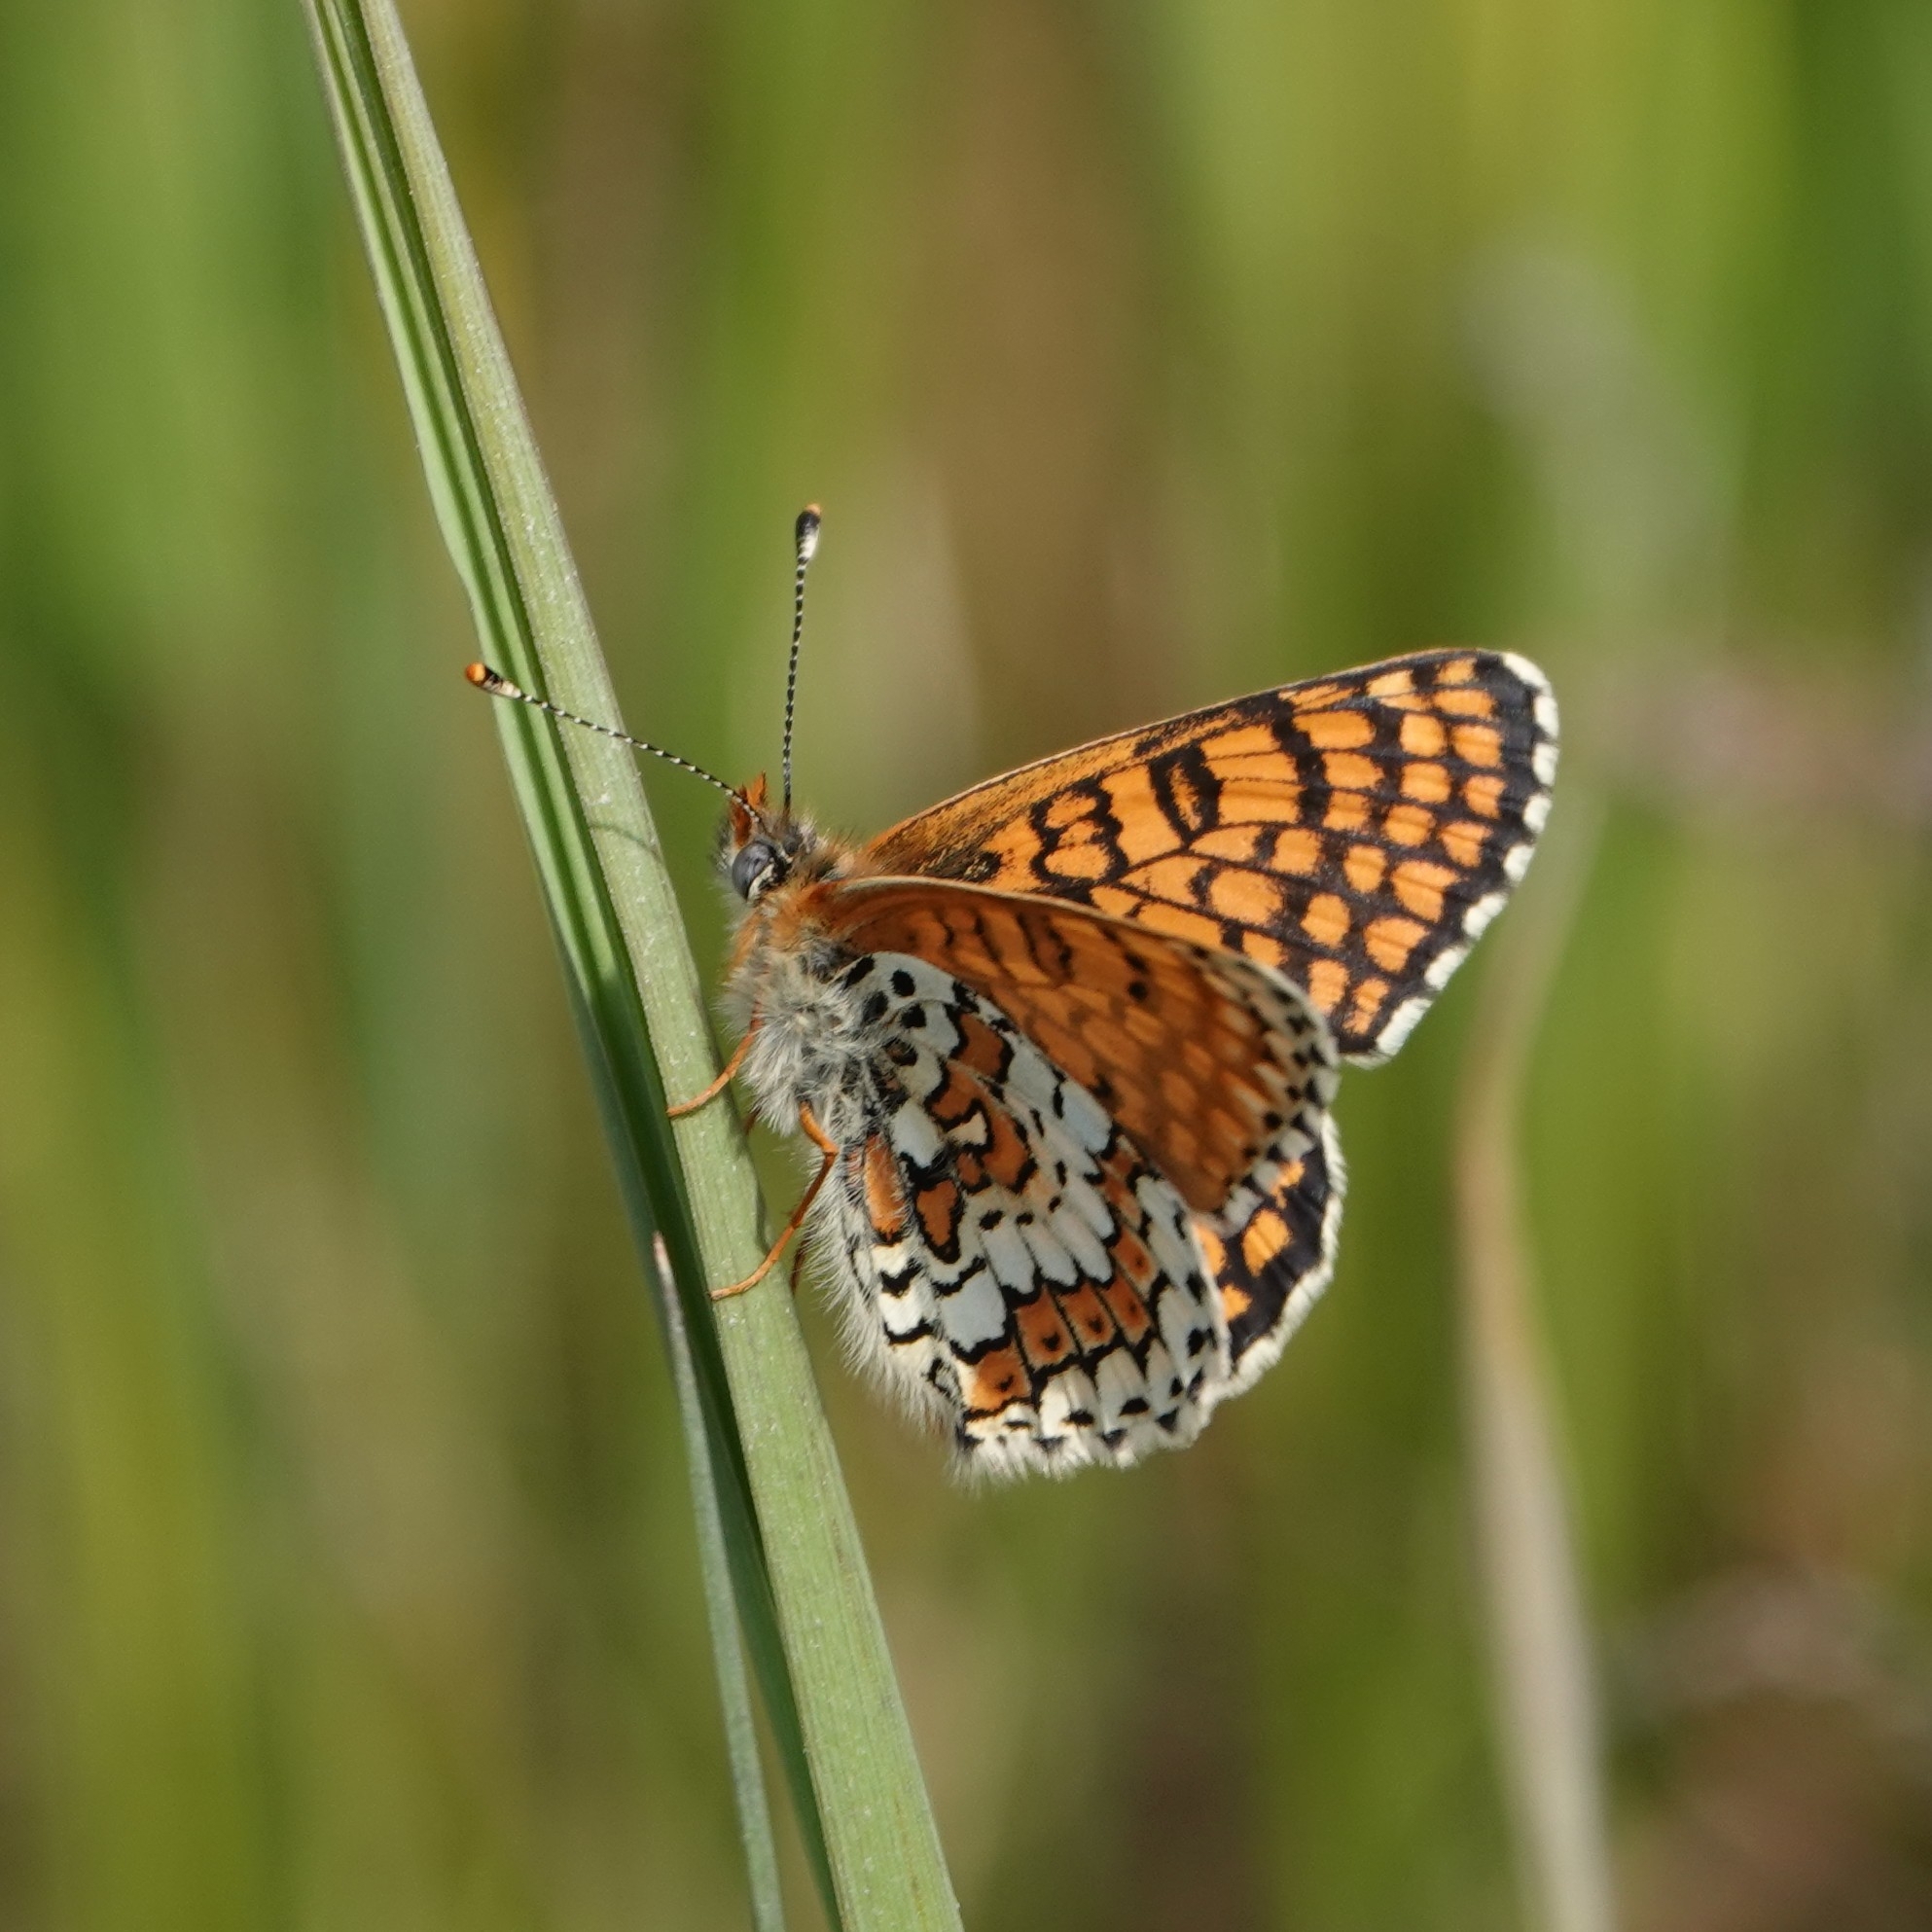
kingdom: Animalia
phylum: Arthropoda
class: Insecta
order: Lepidoptera
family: Nymphalidae
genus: Melitaea
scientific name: Melitaea cinxia
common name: Glanville fritillary
